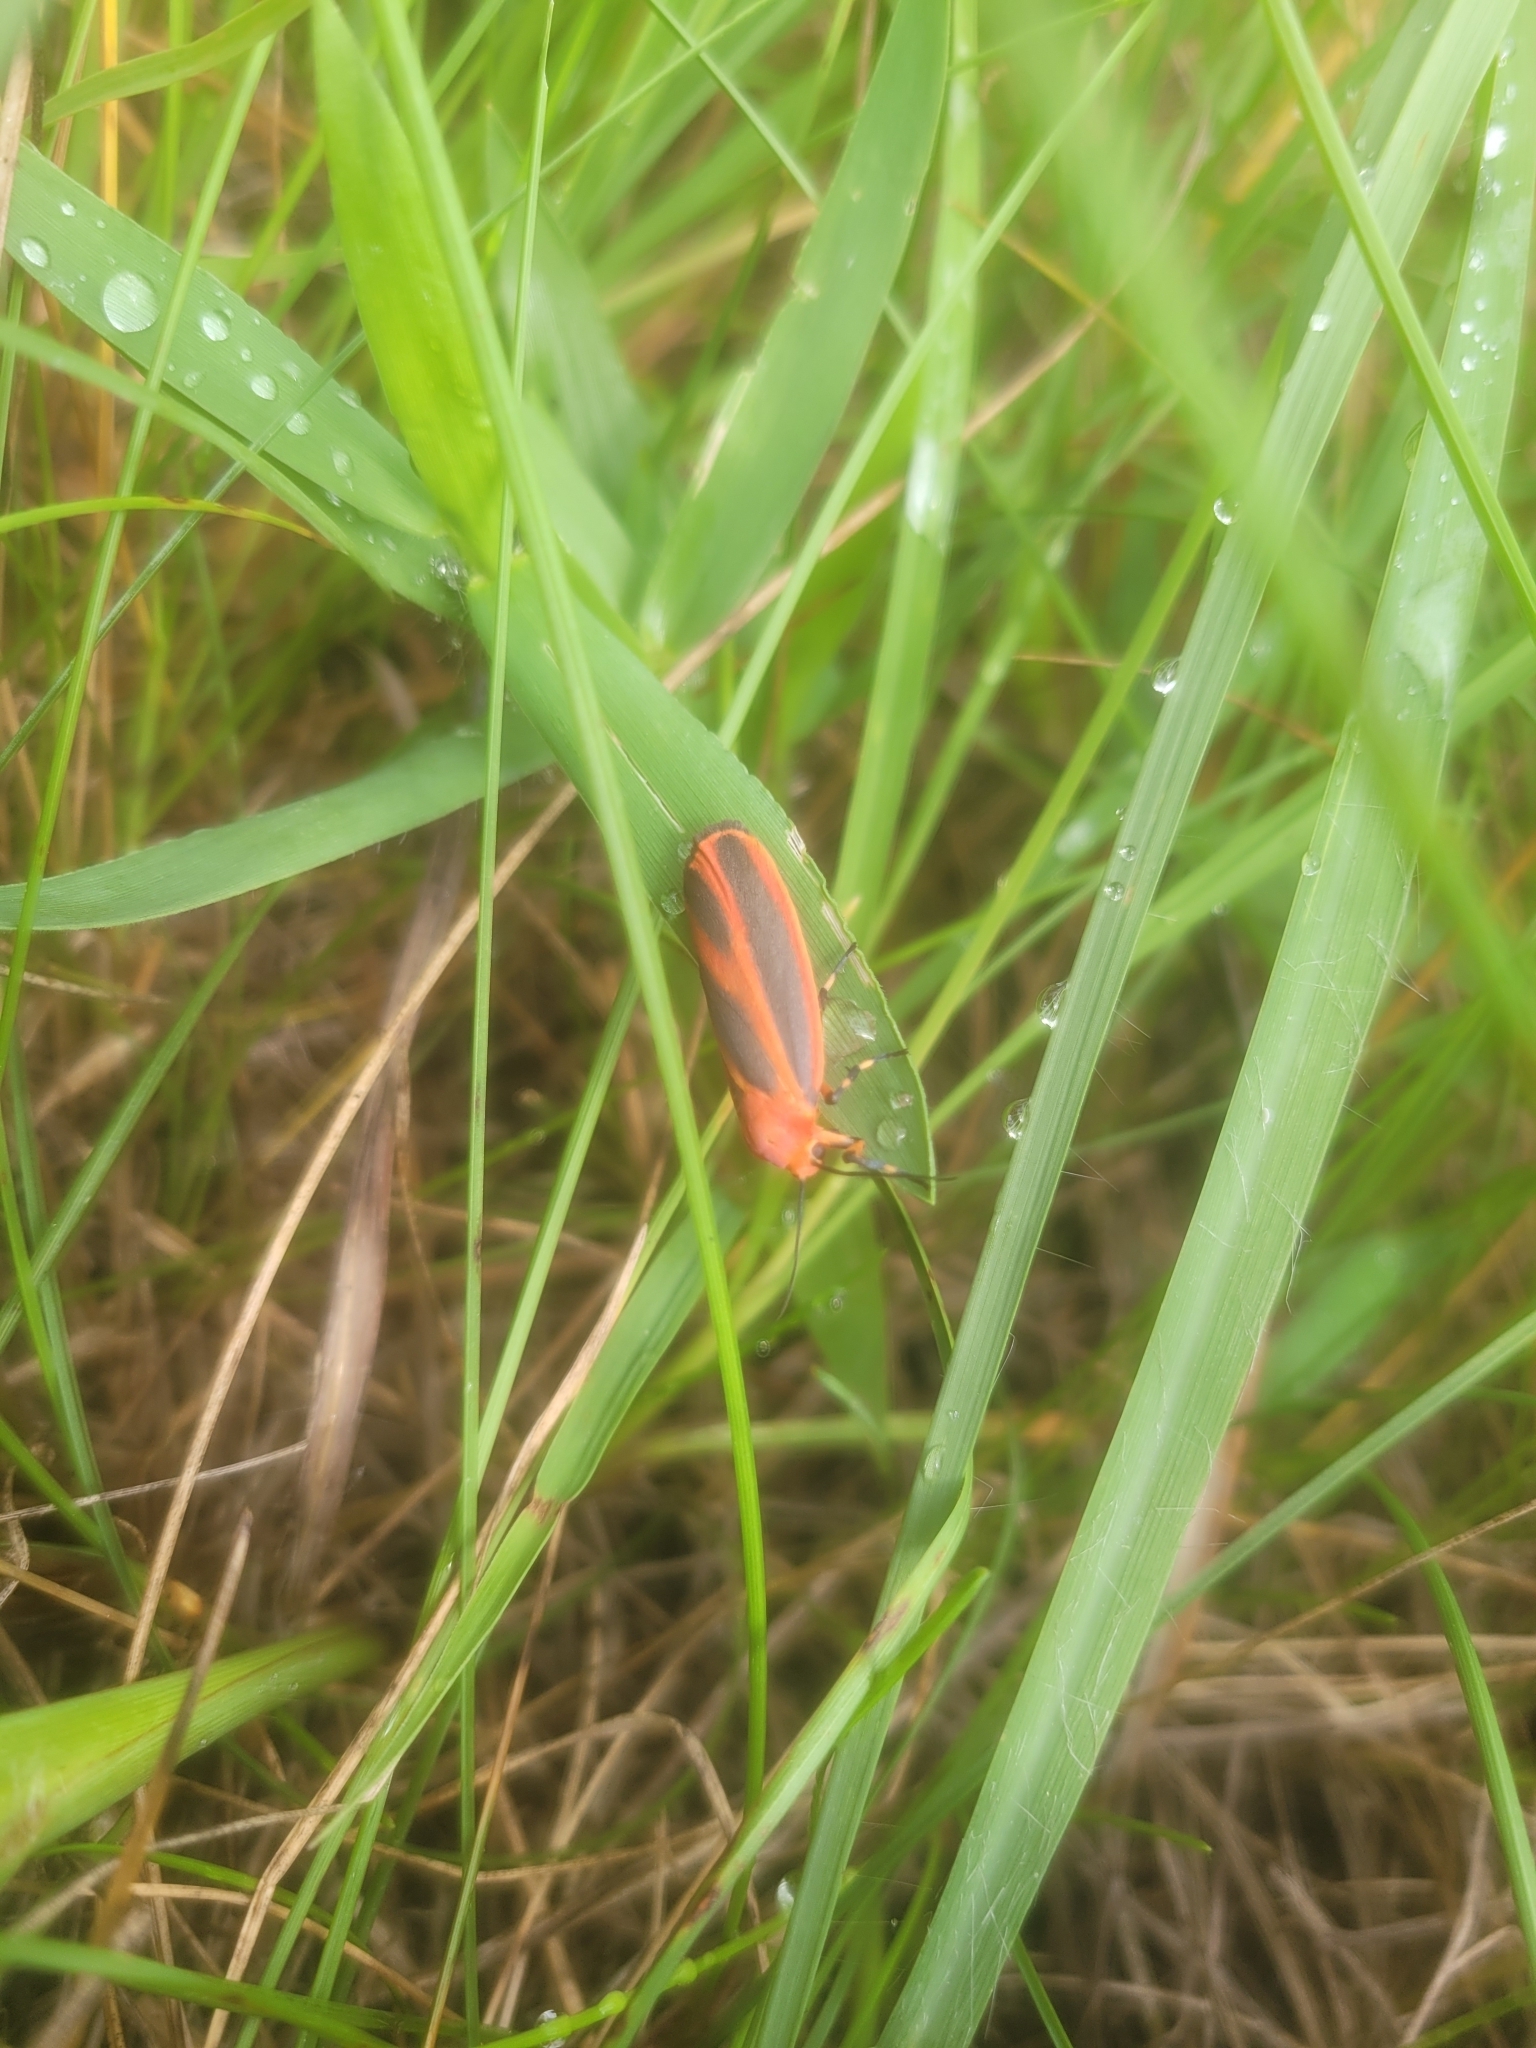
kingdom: Animalia
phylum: Arthropoda
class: Insecta
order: Lepidoptera
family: Erebidae
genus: Hypoprepia
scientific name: Hypoprepia miniata
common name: Scarlet-winged lichen moth
